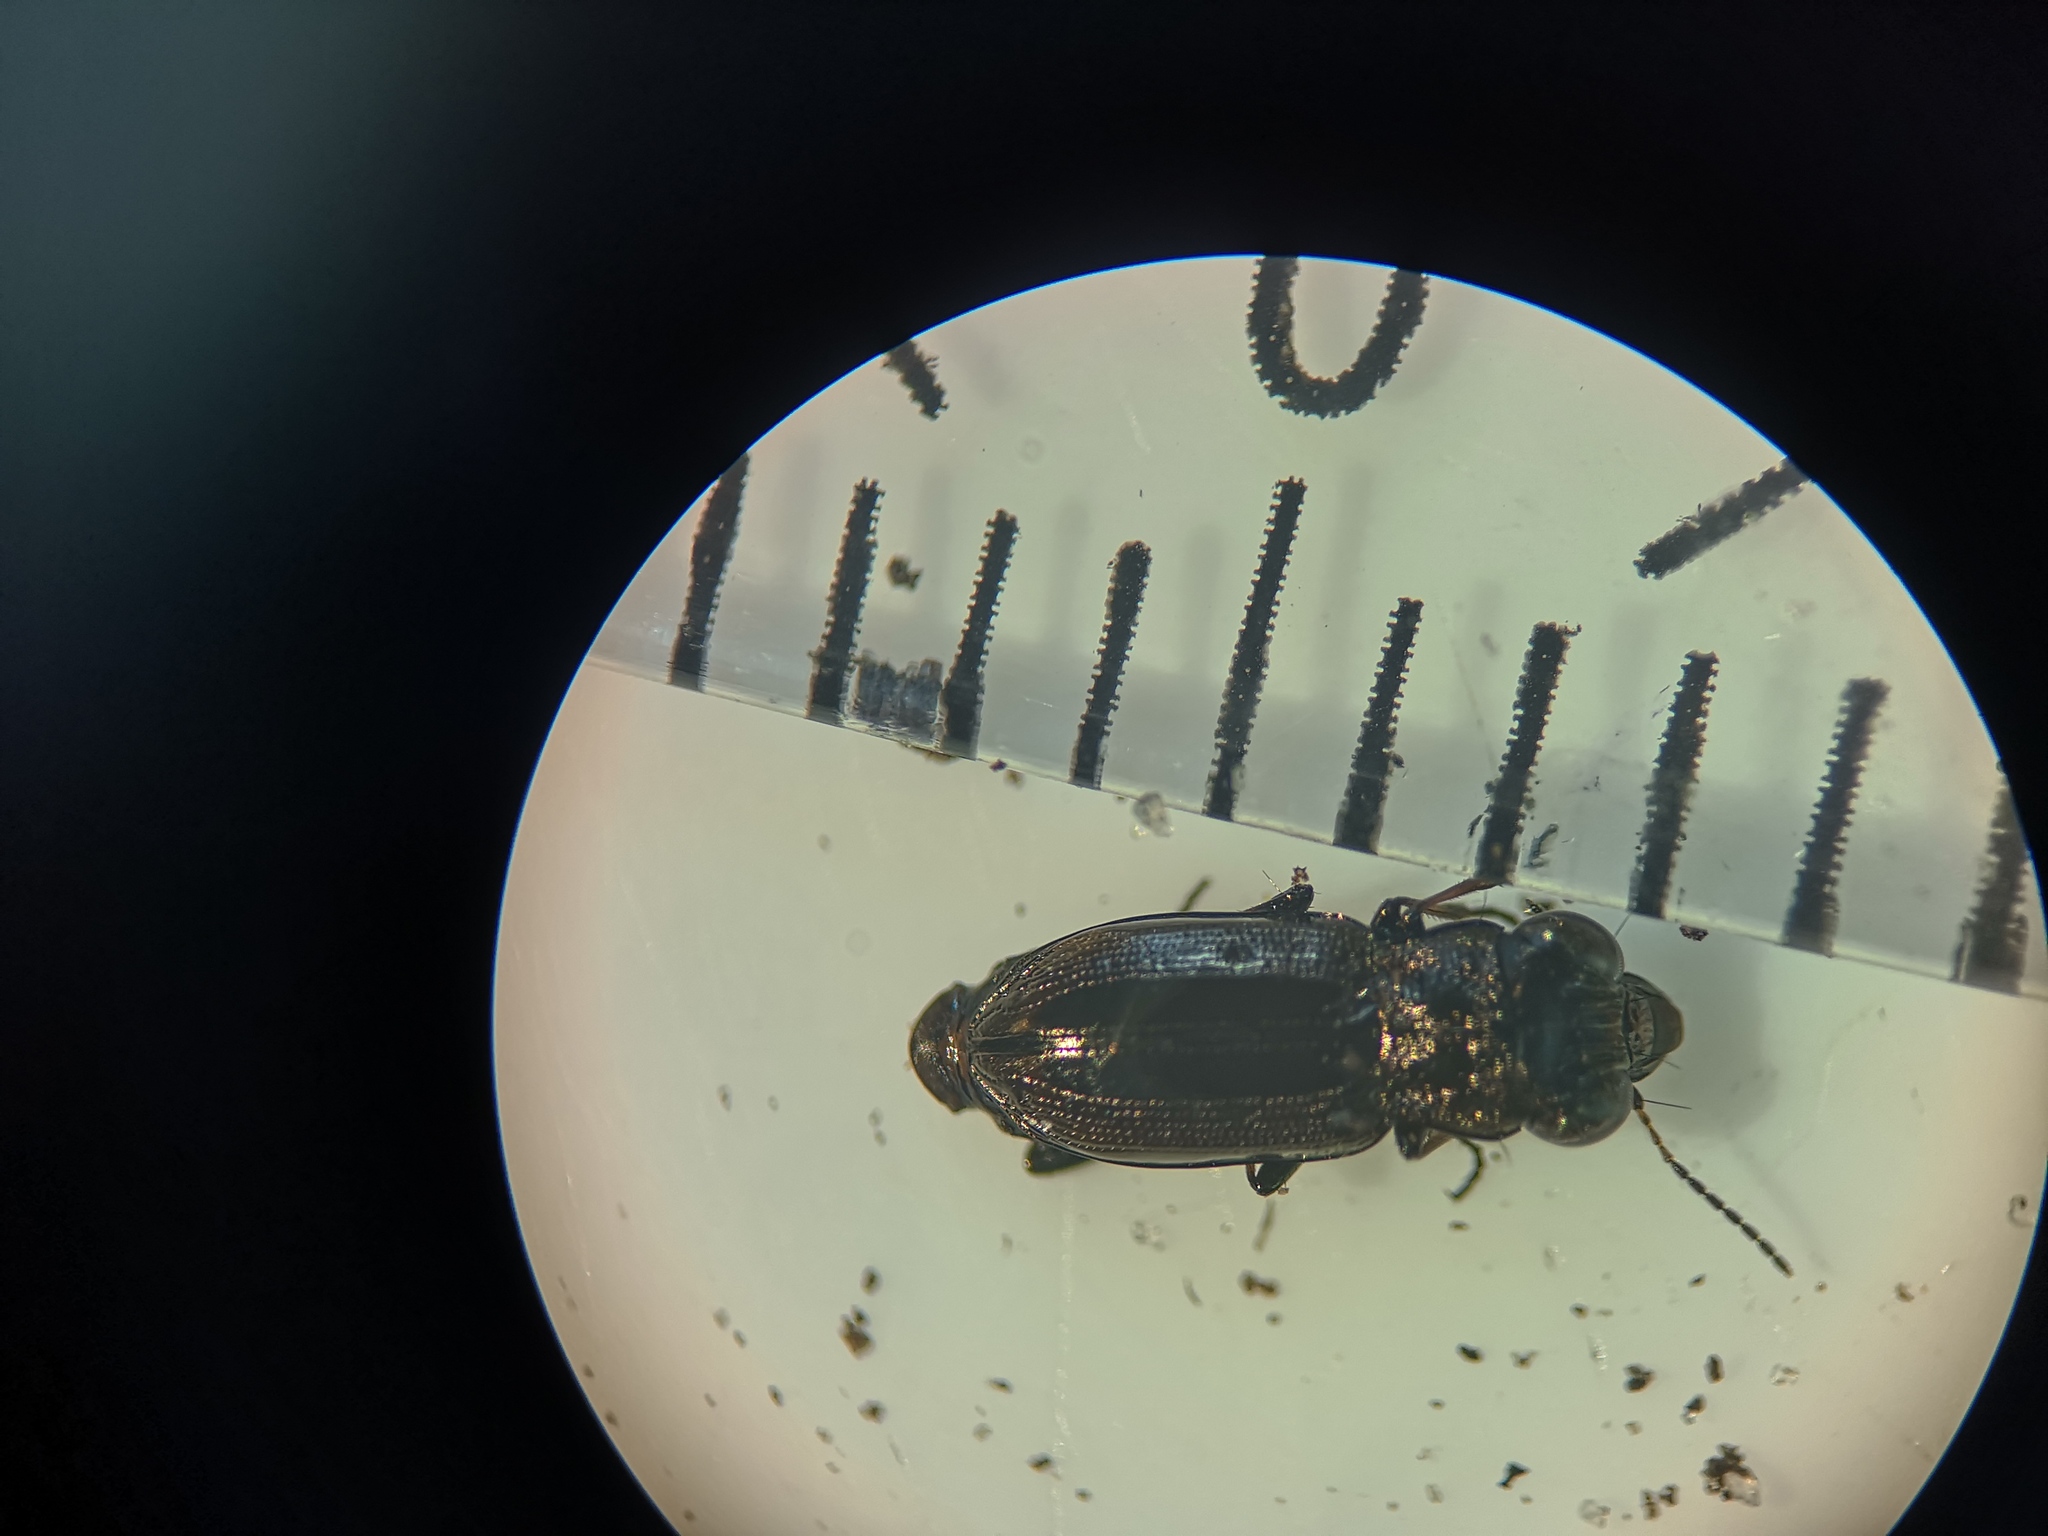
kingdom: Animalia
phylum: Arthropoda
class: Insecta
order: Coleoptera
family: Carabidae
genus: Notiophilus
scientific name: Notiophilus biguttatus
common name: Spotted gazelle beetle
